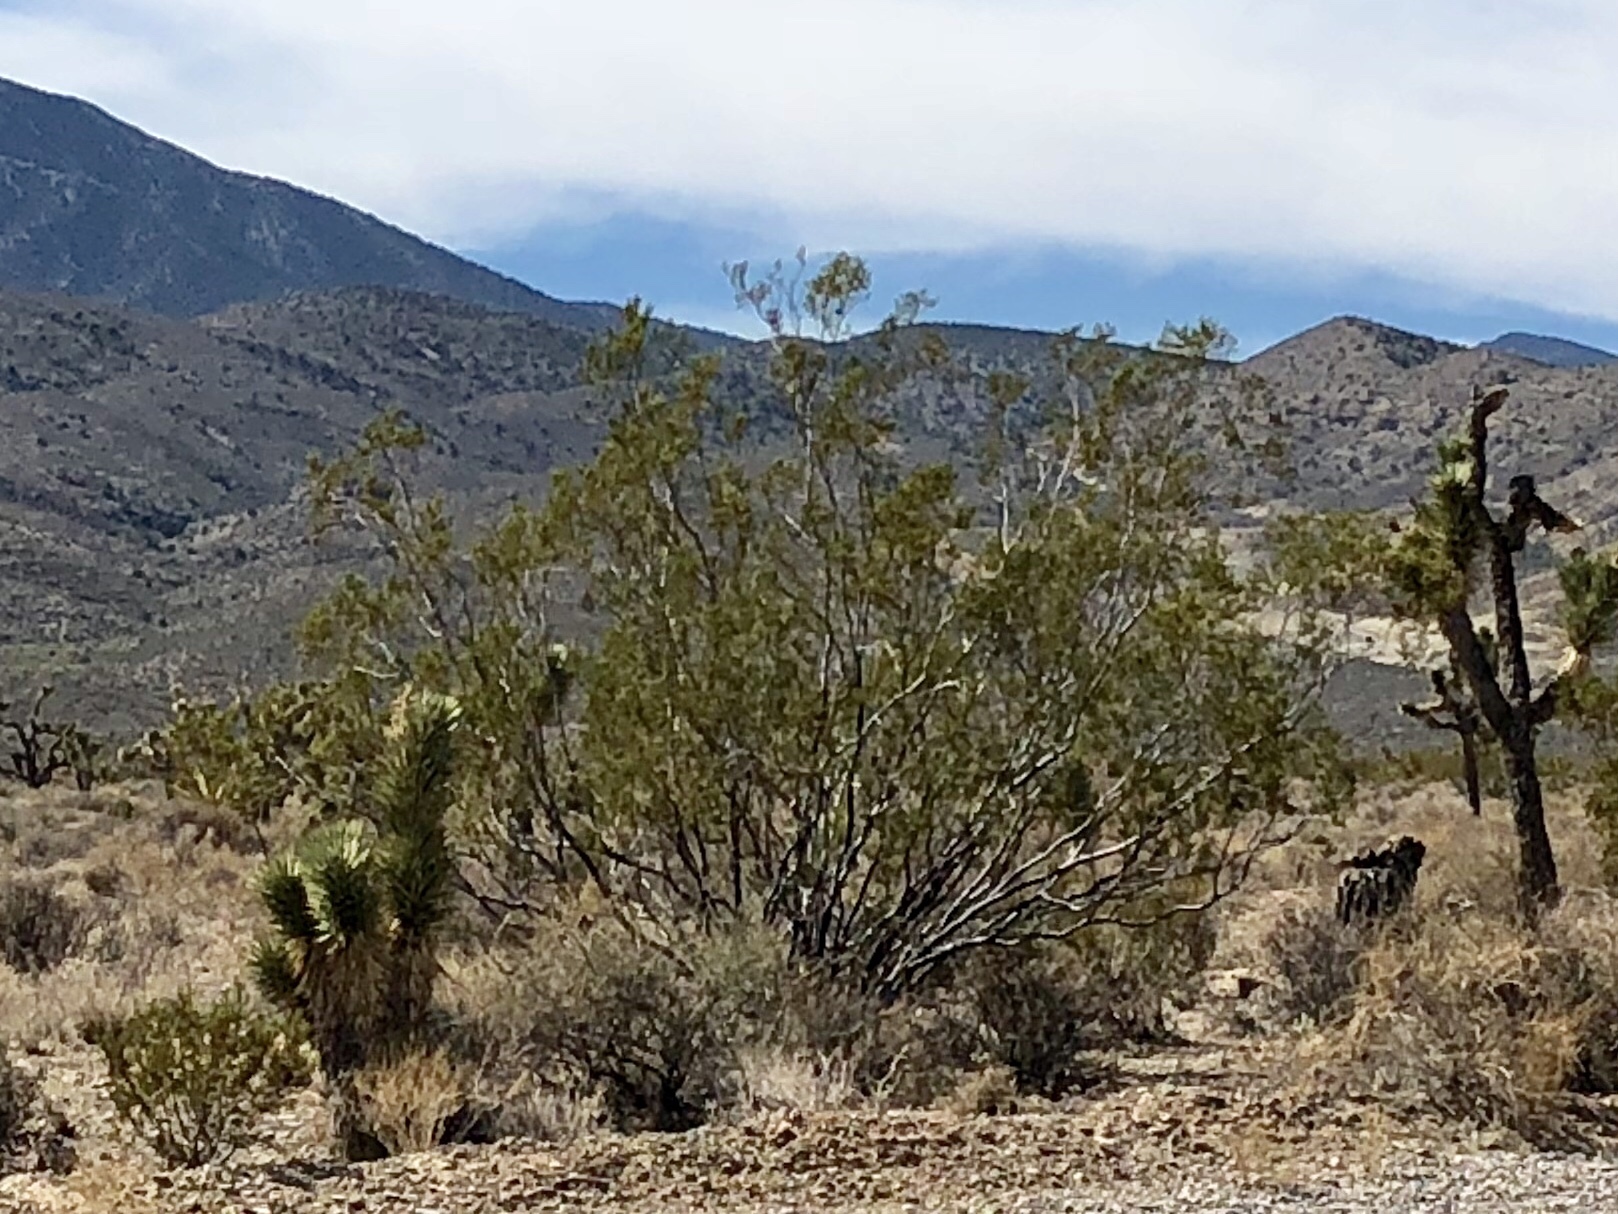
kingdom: Plantae
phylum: Tracheophyta
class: Magnoliopsida
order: Zygophyllales
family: Zygophyllaceae
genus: Larrea
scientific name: Larrea tridentata
